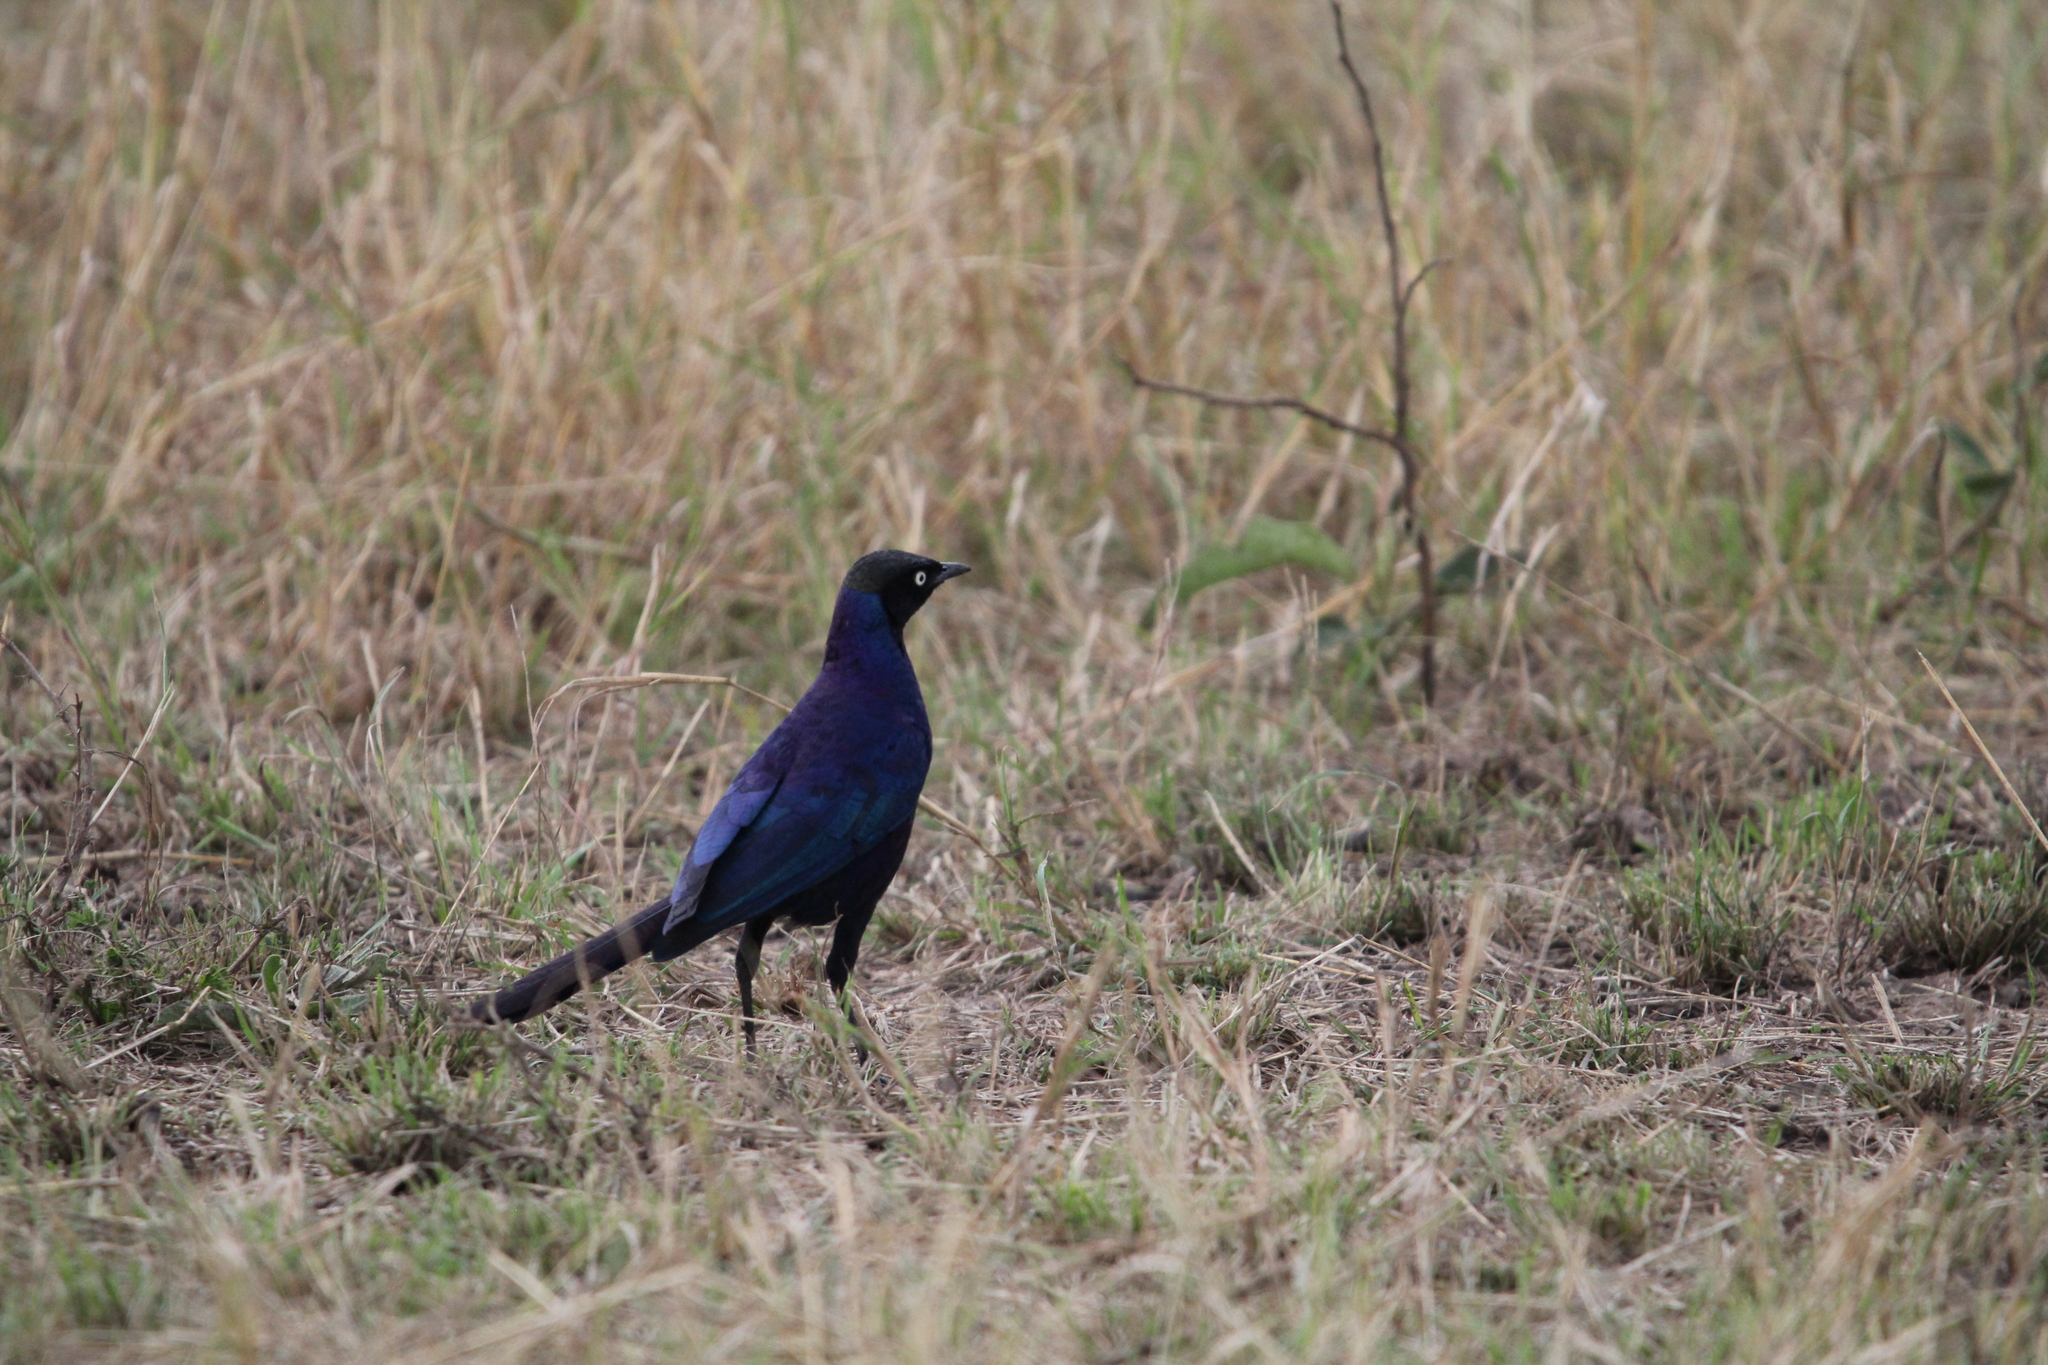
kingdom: Animalia
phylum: Chordata
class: Aves
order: Passeriformes
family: Sturnidae
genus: Lamprotornis
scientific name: Lamprotornis purpuroptera
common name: Rüppell's starling
